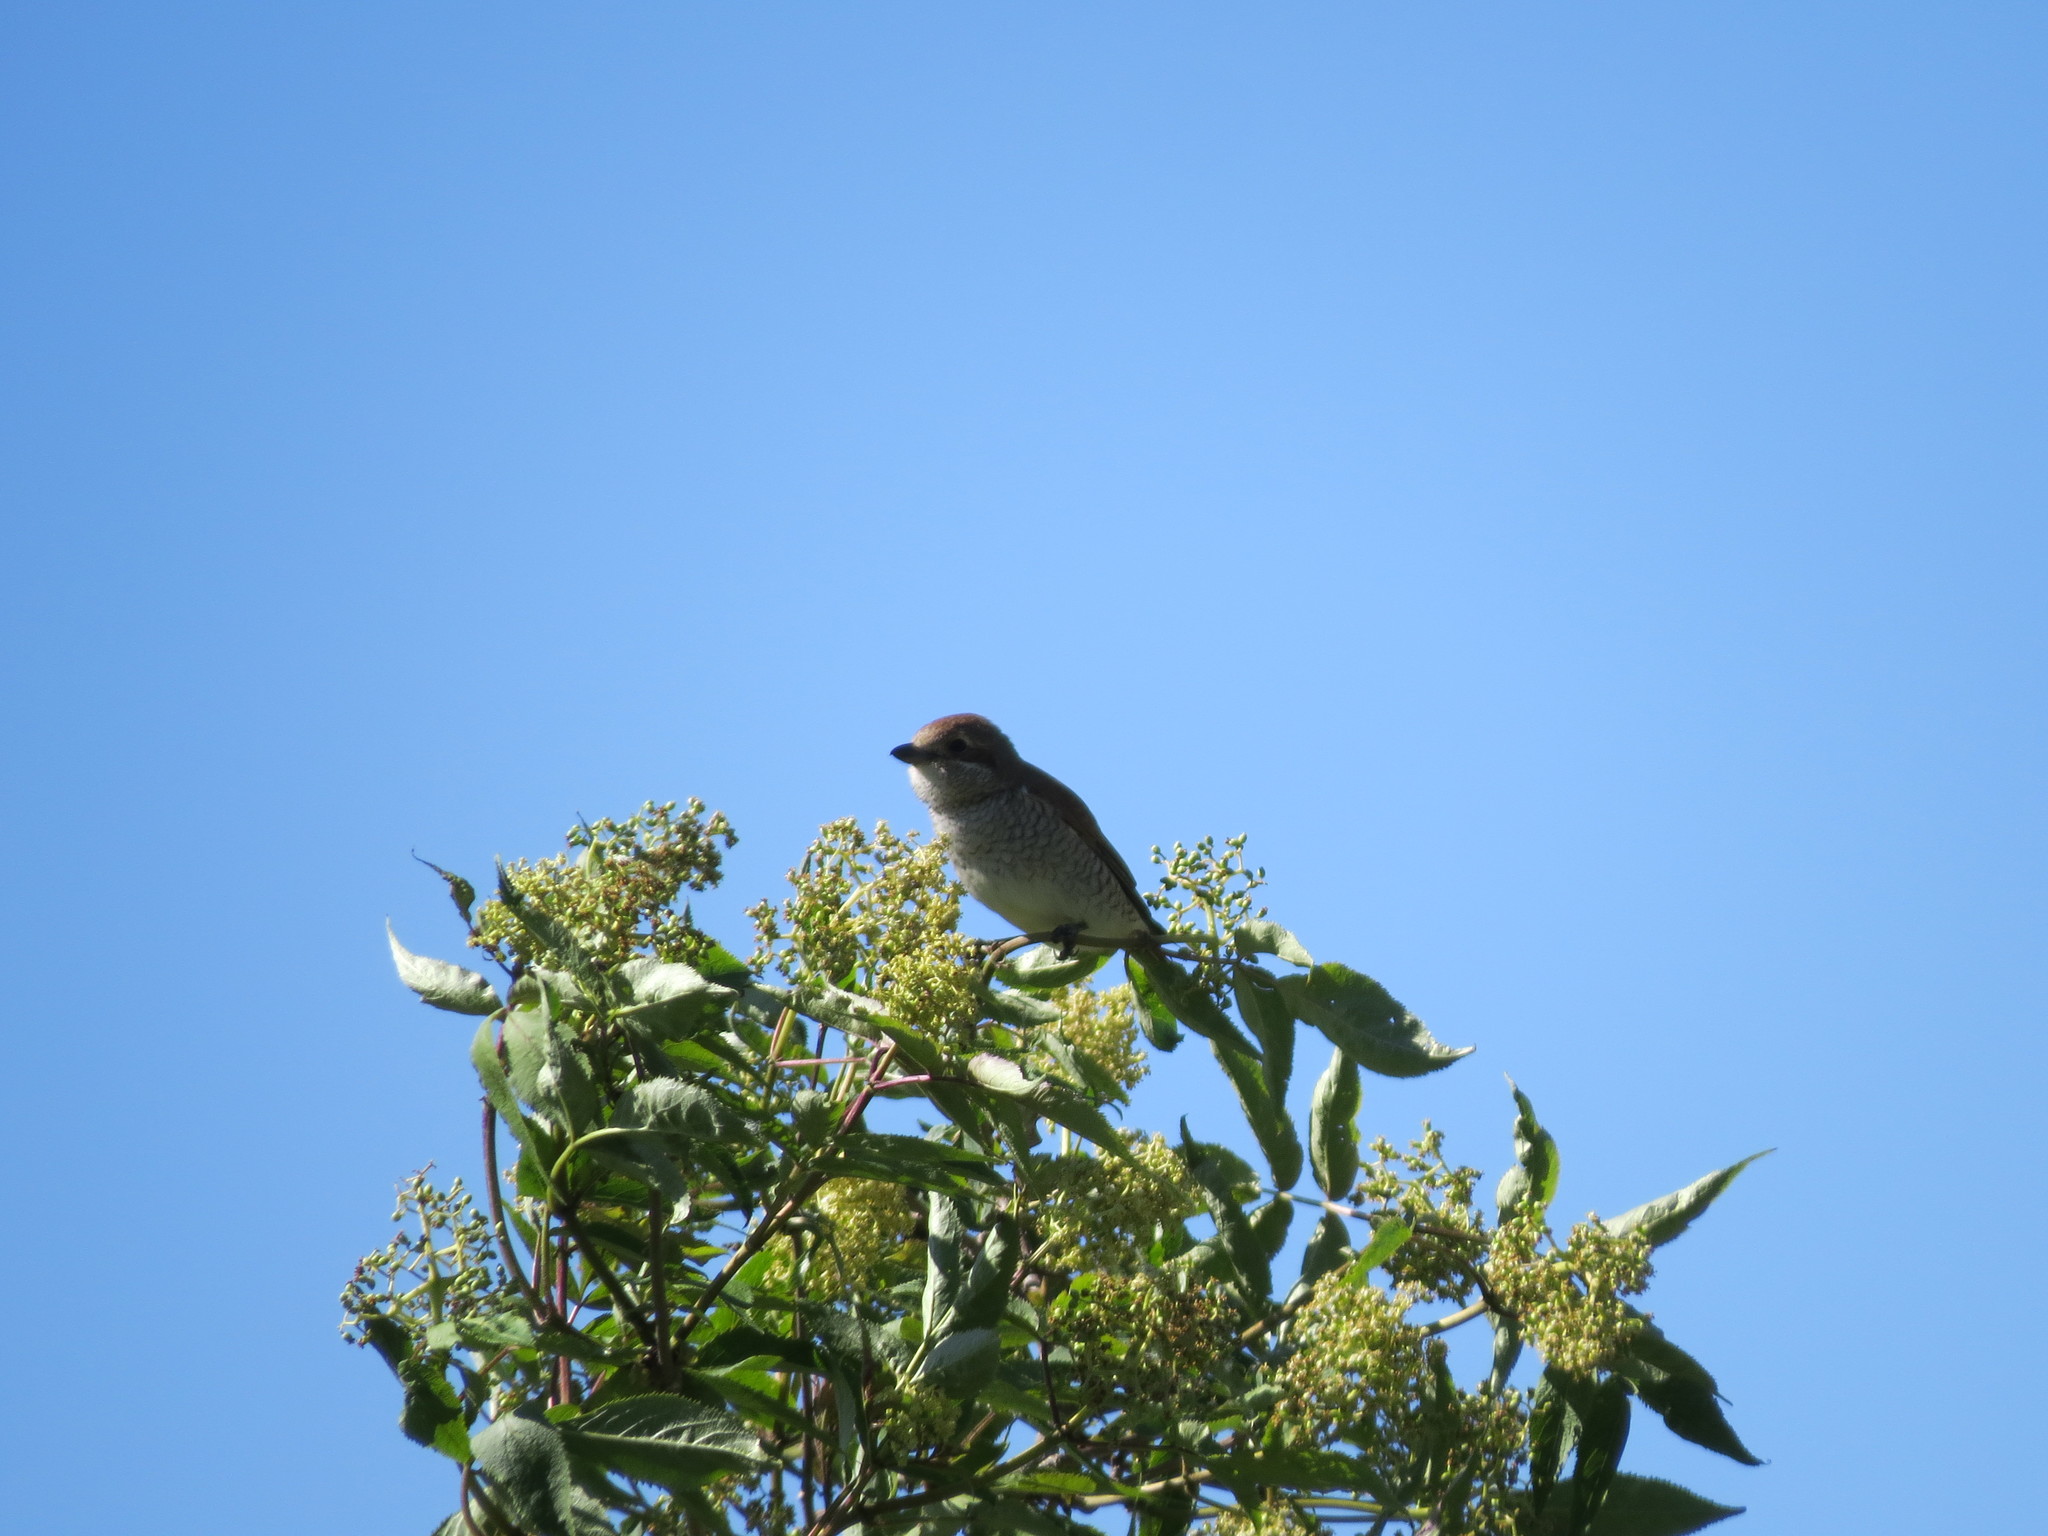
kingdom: Animalia
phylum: Chordata
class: Aves
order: Passeriformes
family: Laniidae
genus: Lanius
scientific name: Lanius collurio
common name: Red-backed shrike
